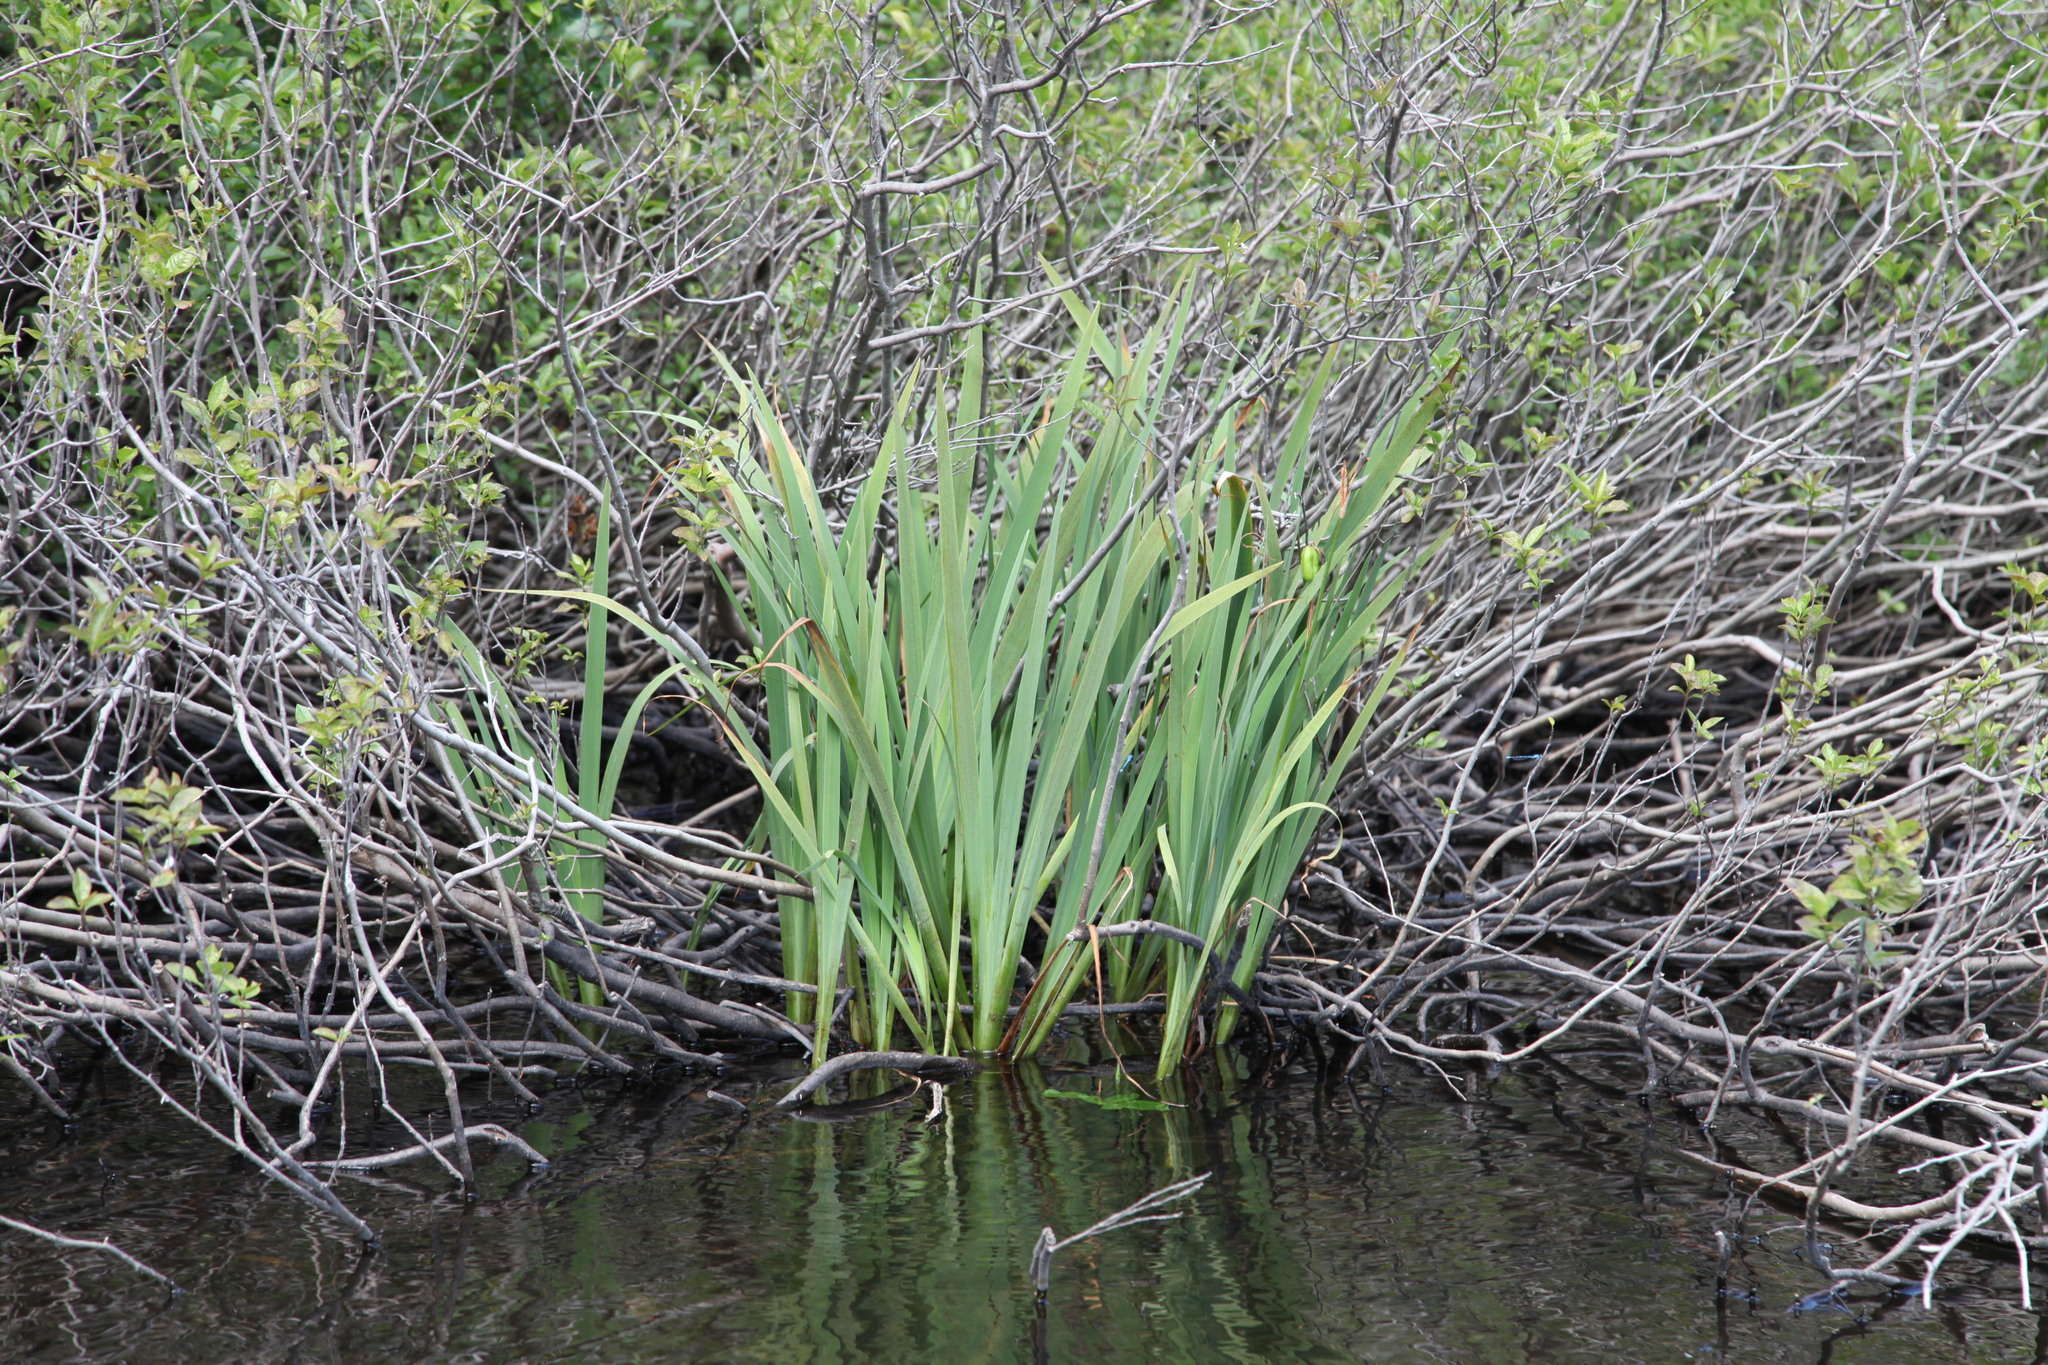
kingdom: Plantae
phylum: Tracheophyta
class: Liliopsida
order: Asparagales
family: Iridaceae
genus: Iris
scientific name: Iris versicolor
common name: Purple iris
